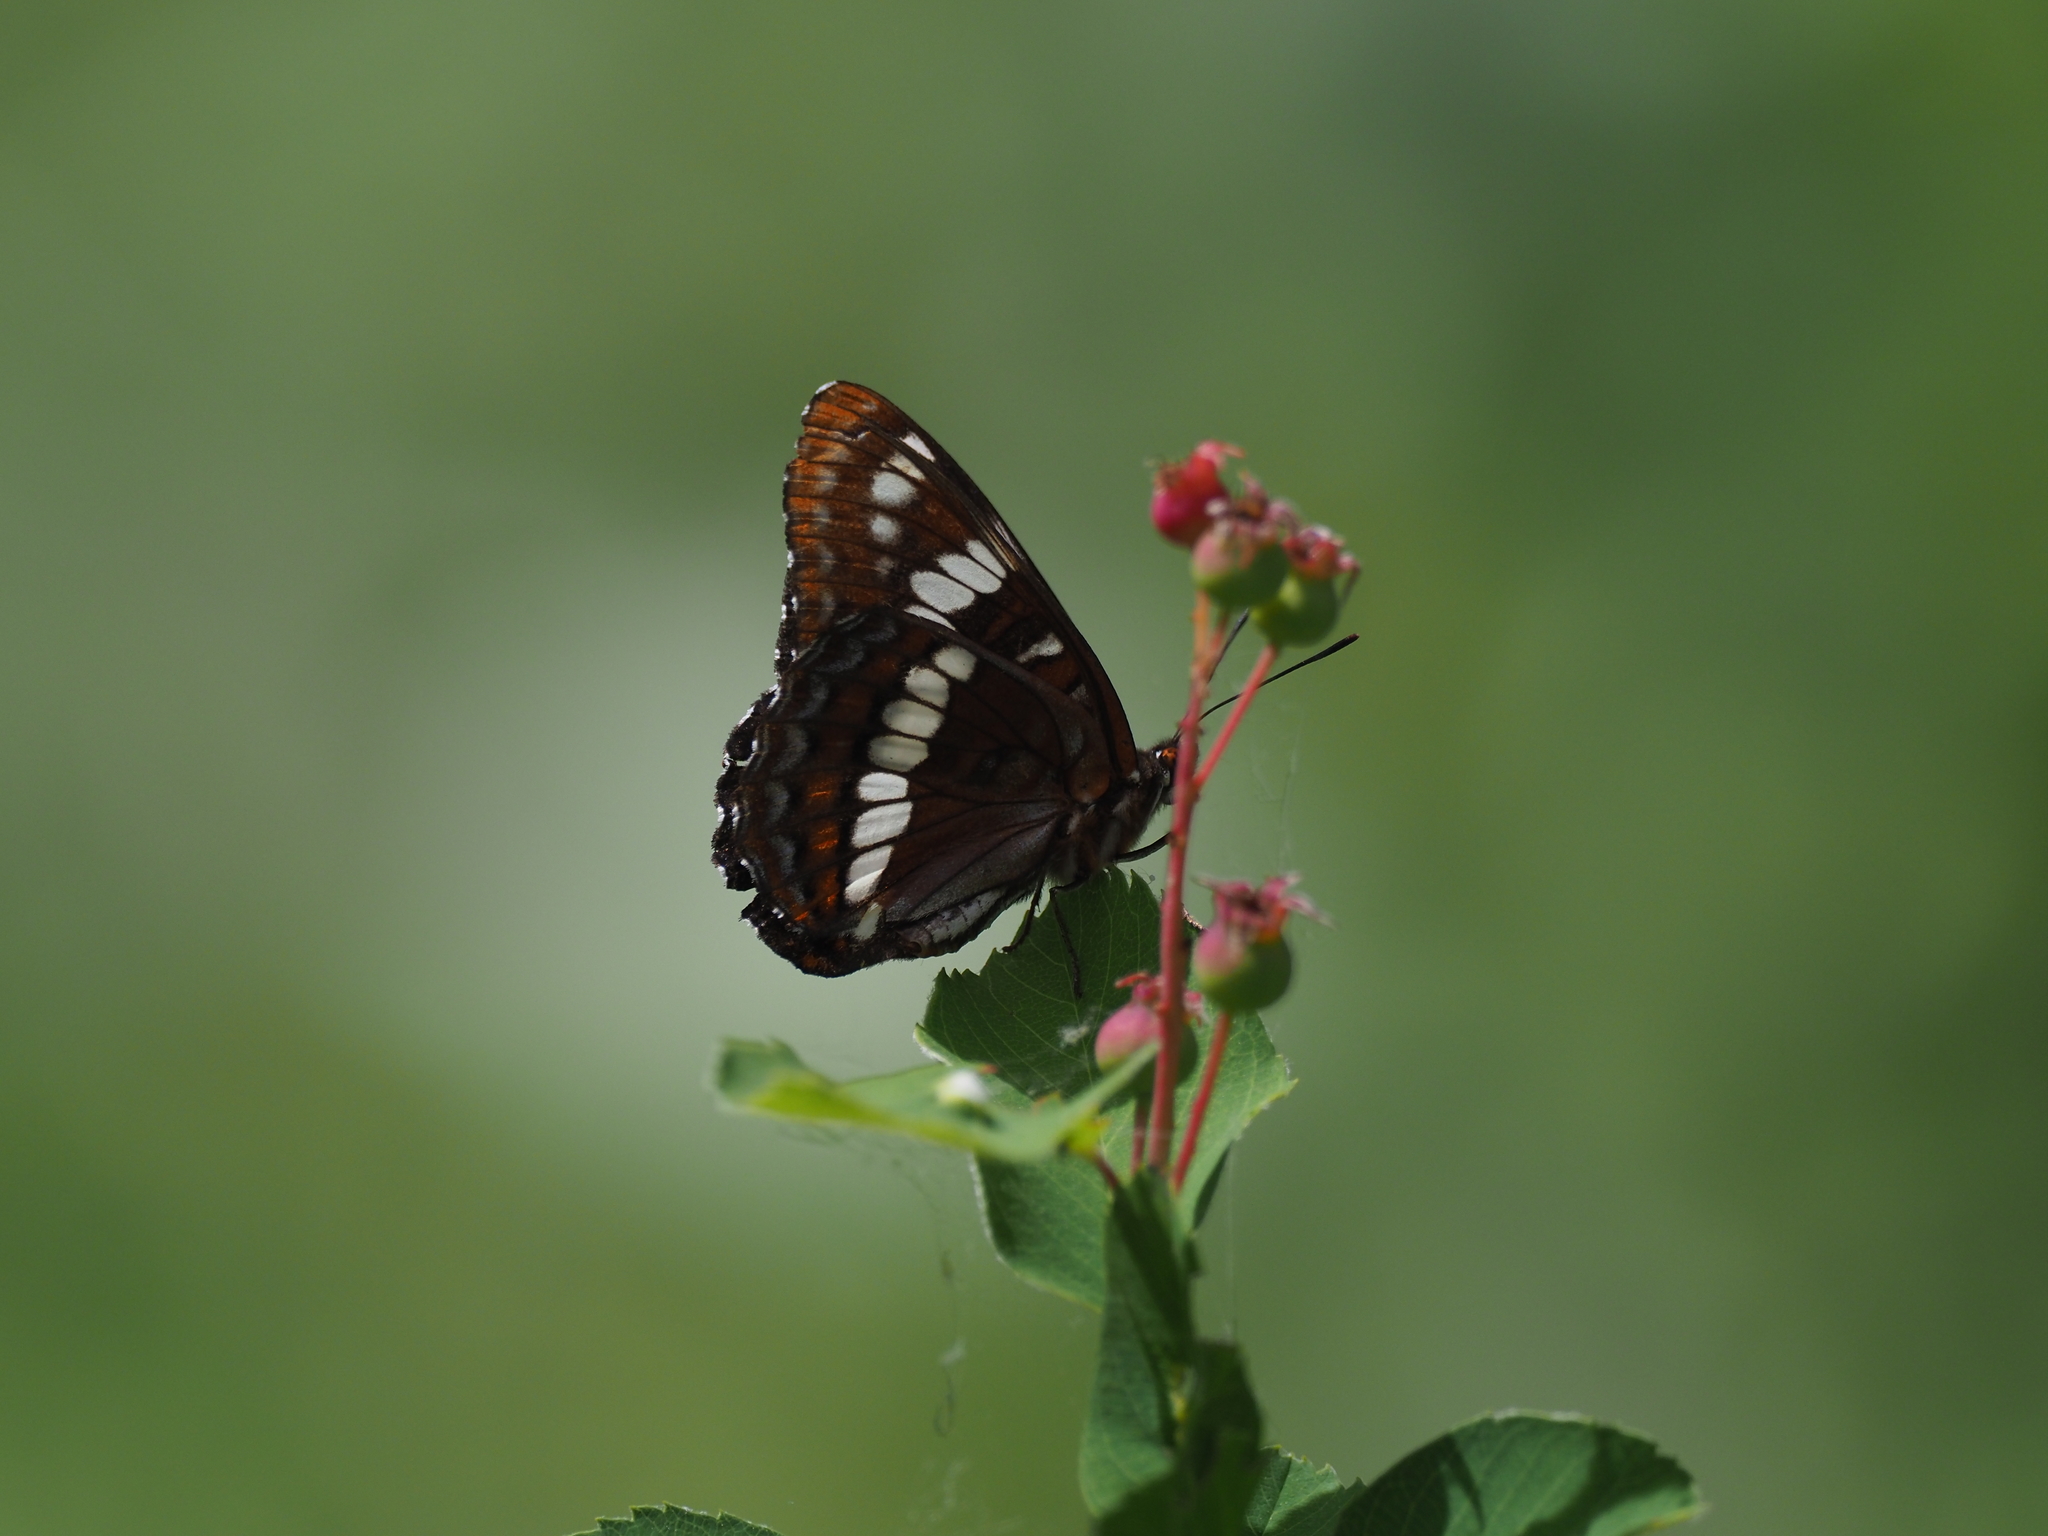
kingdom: Animalia
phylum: Arthropoda
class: Insecta
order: Lepidoptera
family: Nymphalidae
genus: Limenitis
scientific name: Limenitis lorquini
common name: Lorquin's admiral
